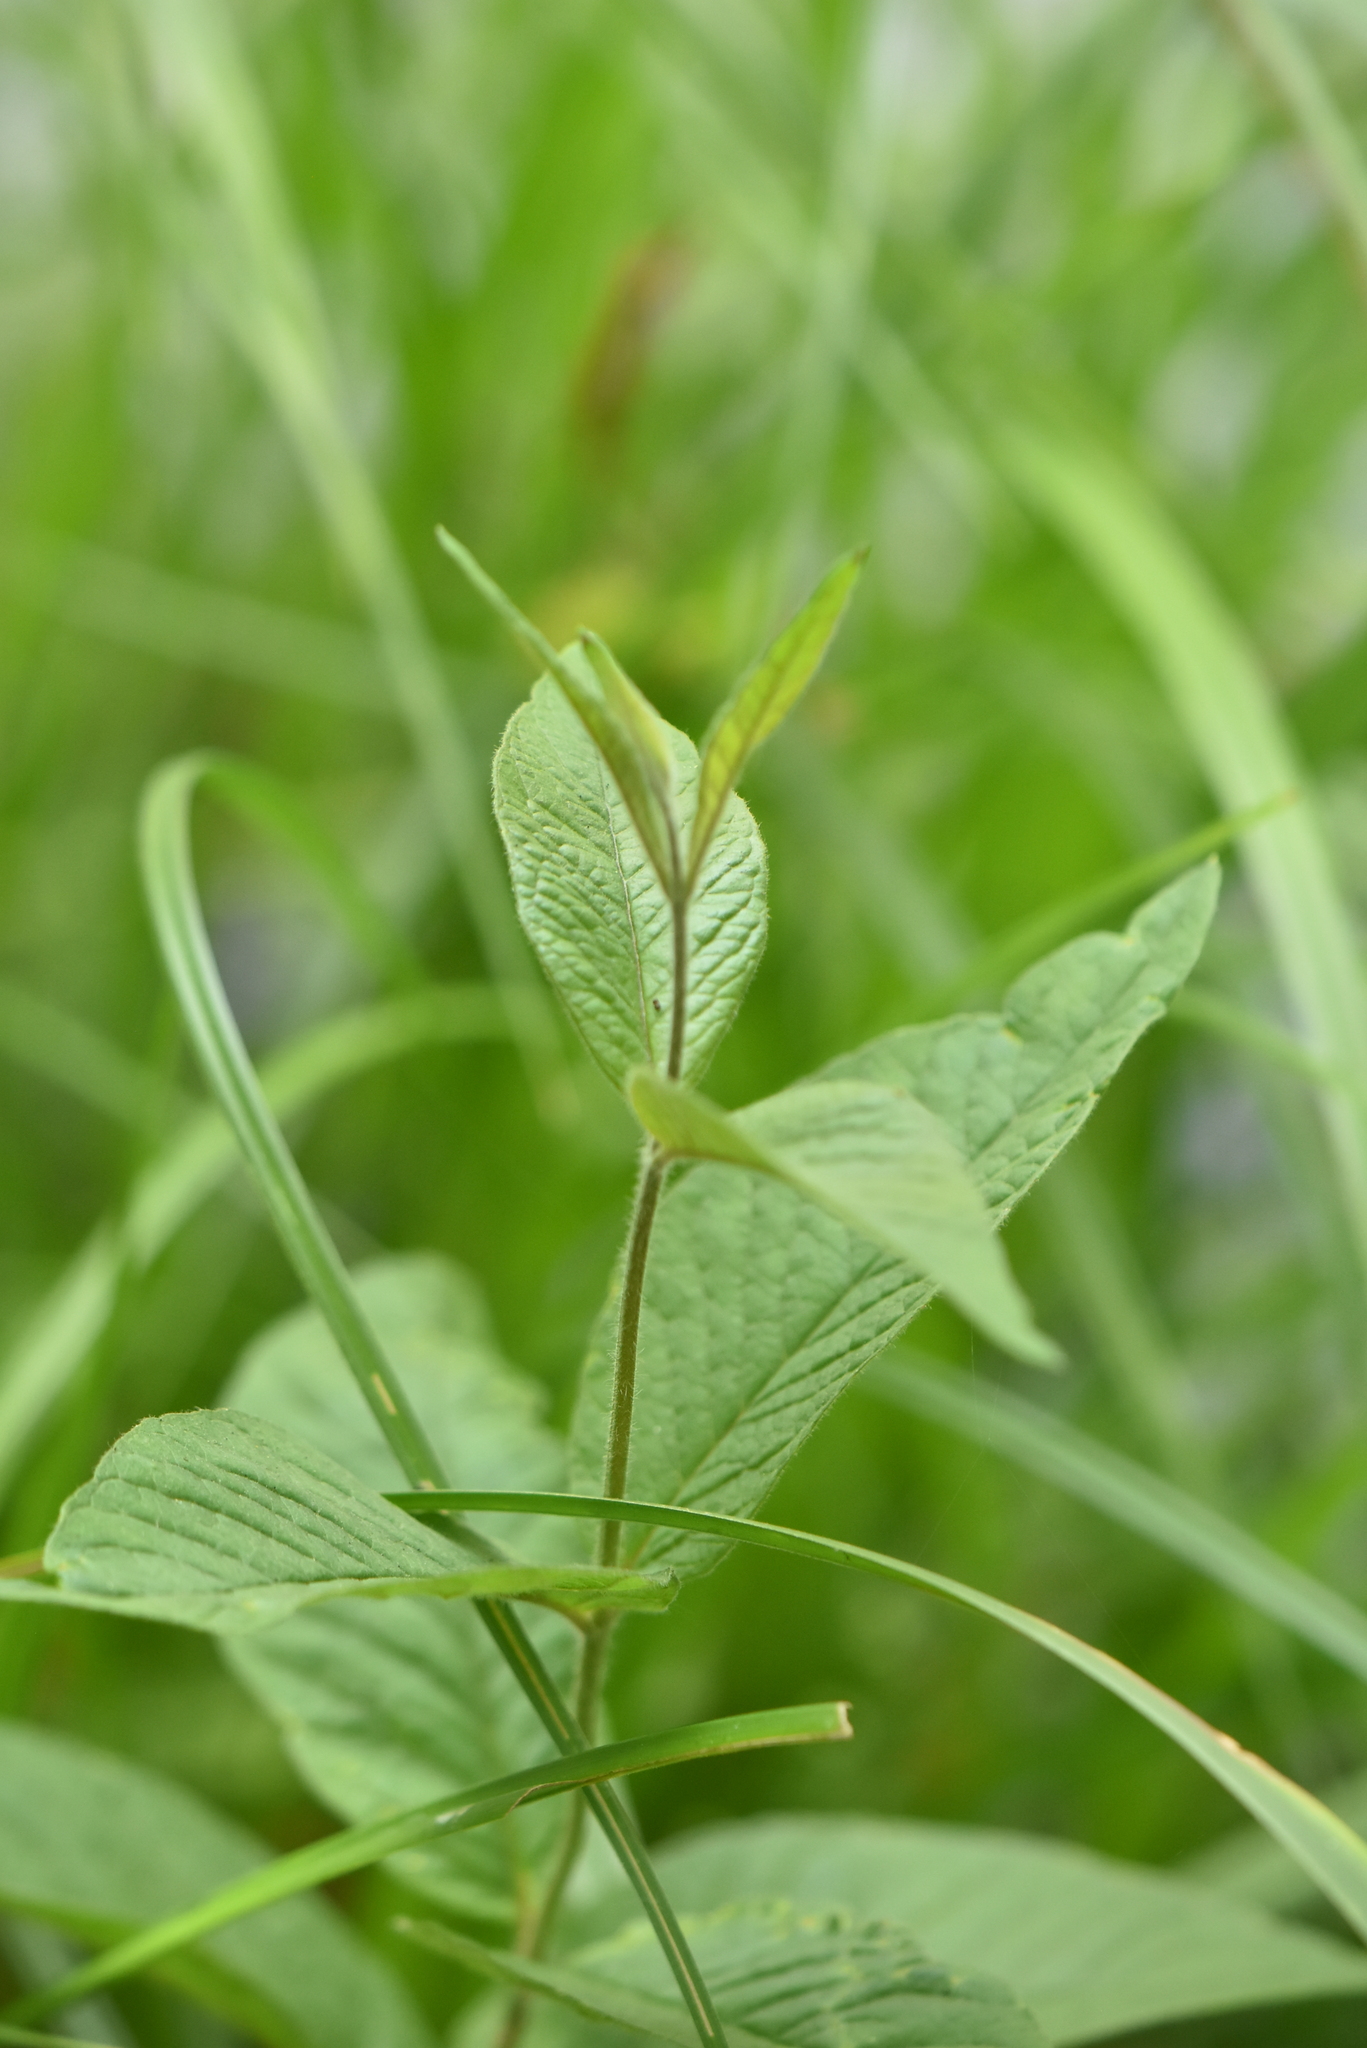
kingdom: Plantae
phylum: Tracheophyta
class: Magnoliopsida
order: Ericales
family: Primulaceae
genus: Lysimachia
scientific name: Lysimachia vulgaris
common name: Yellow loosestrife
